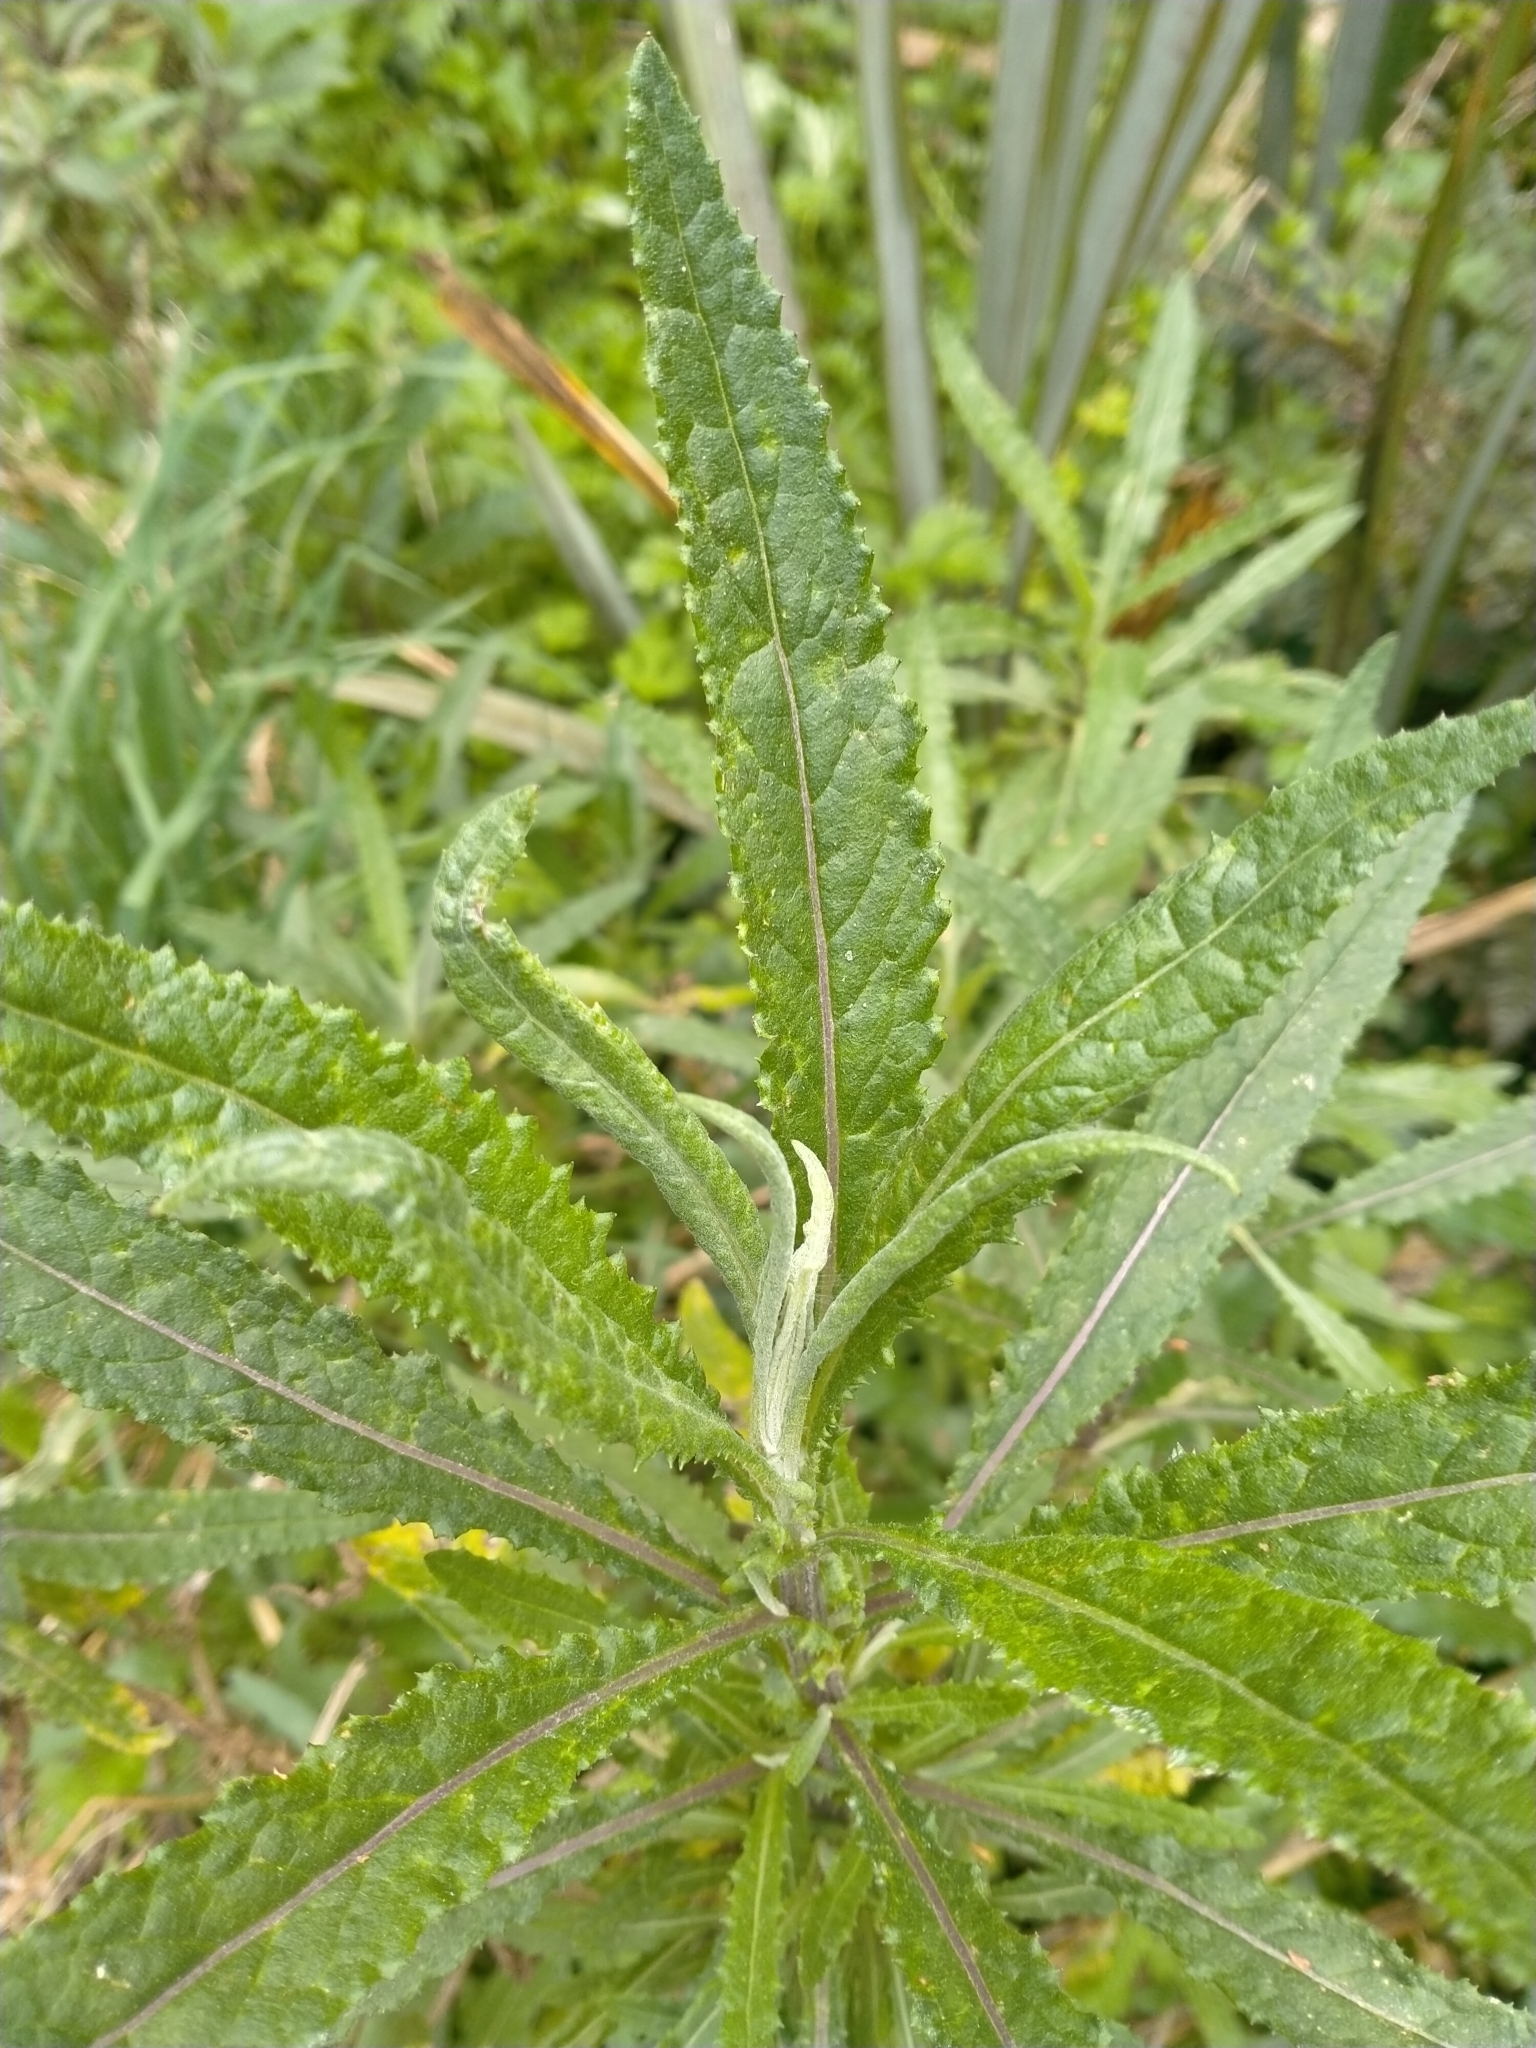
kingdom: Plantae
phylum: Tracheophyta
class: Magnoliopsida
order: Asterales
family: Asteraceae
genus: Senecio
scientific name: Senecio minimus
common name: Toothed fireweed
